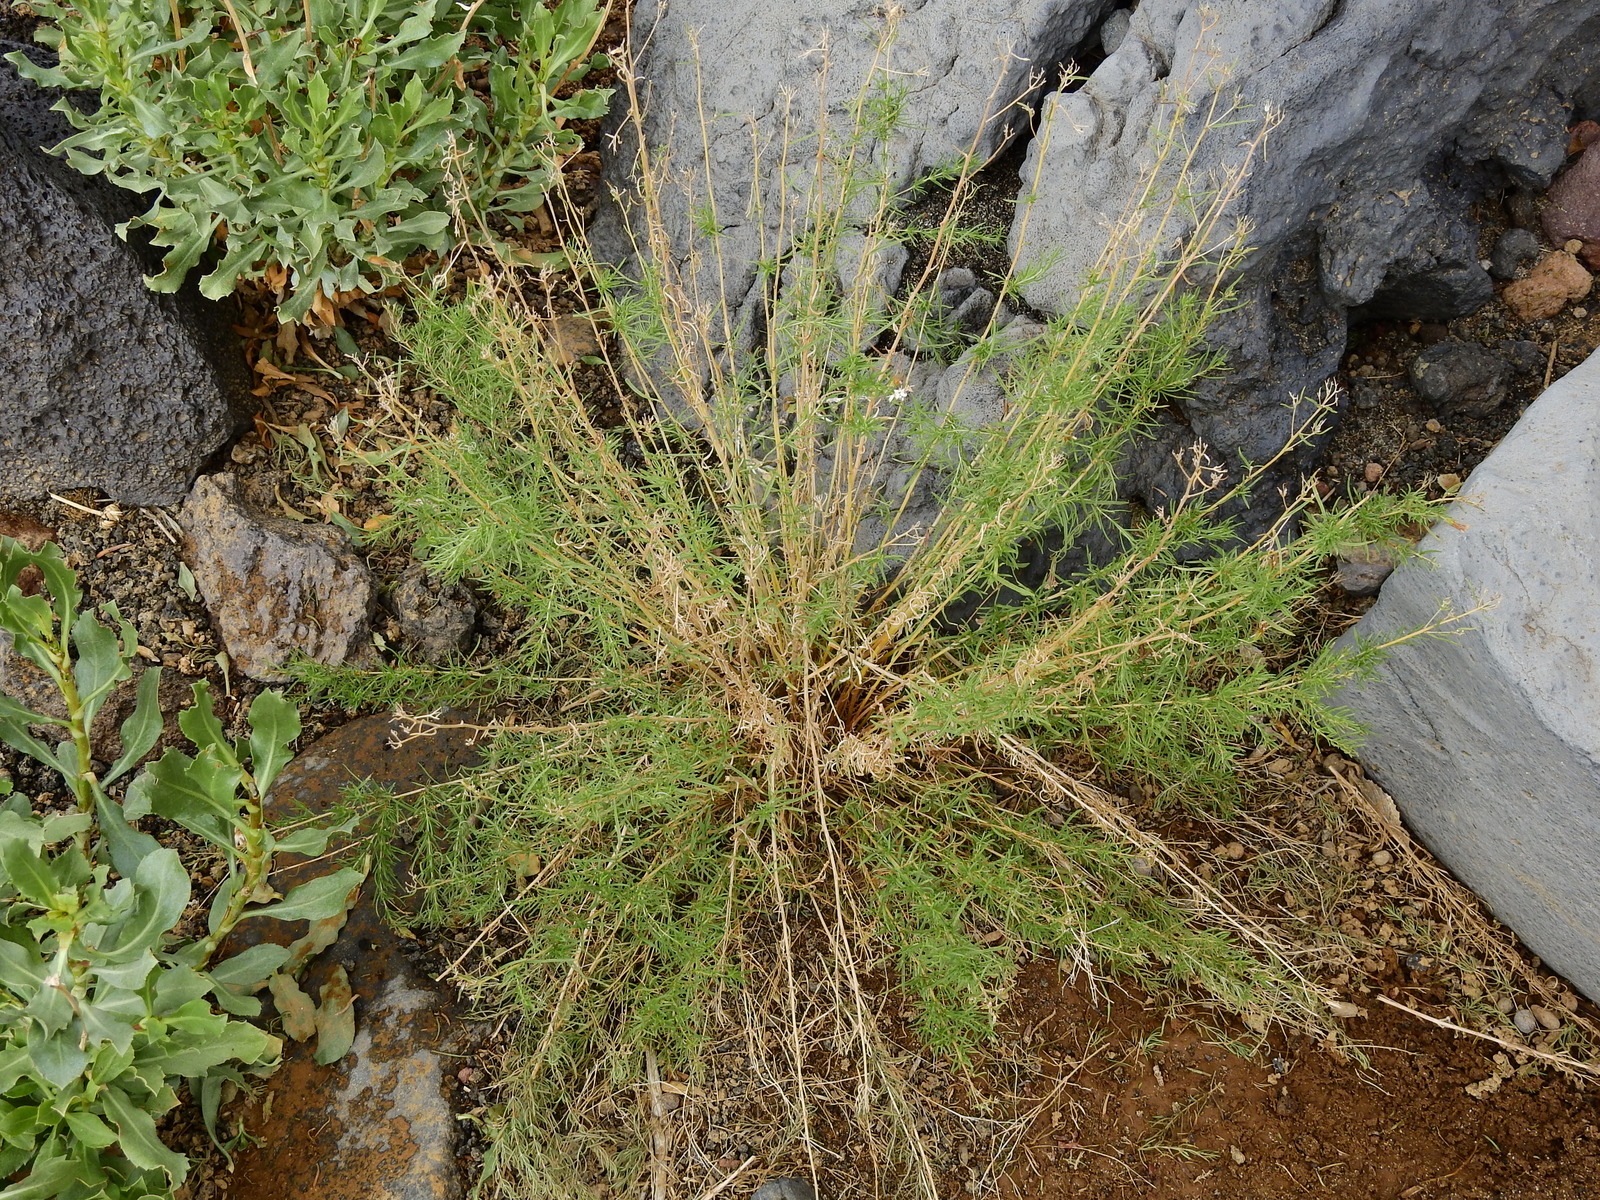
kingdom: Plantae
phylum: Tracheophyta
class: Magnoliopsida
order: Asterales
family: Asteraceae
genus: Stevia
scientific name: Stevia satureifolia
